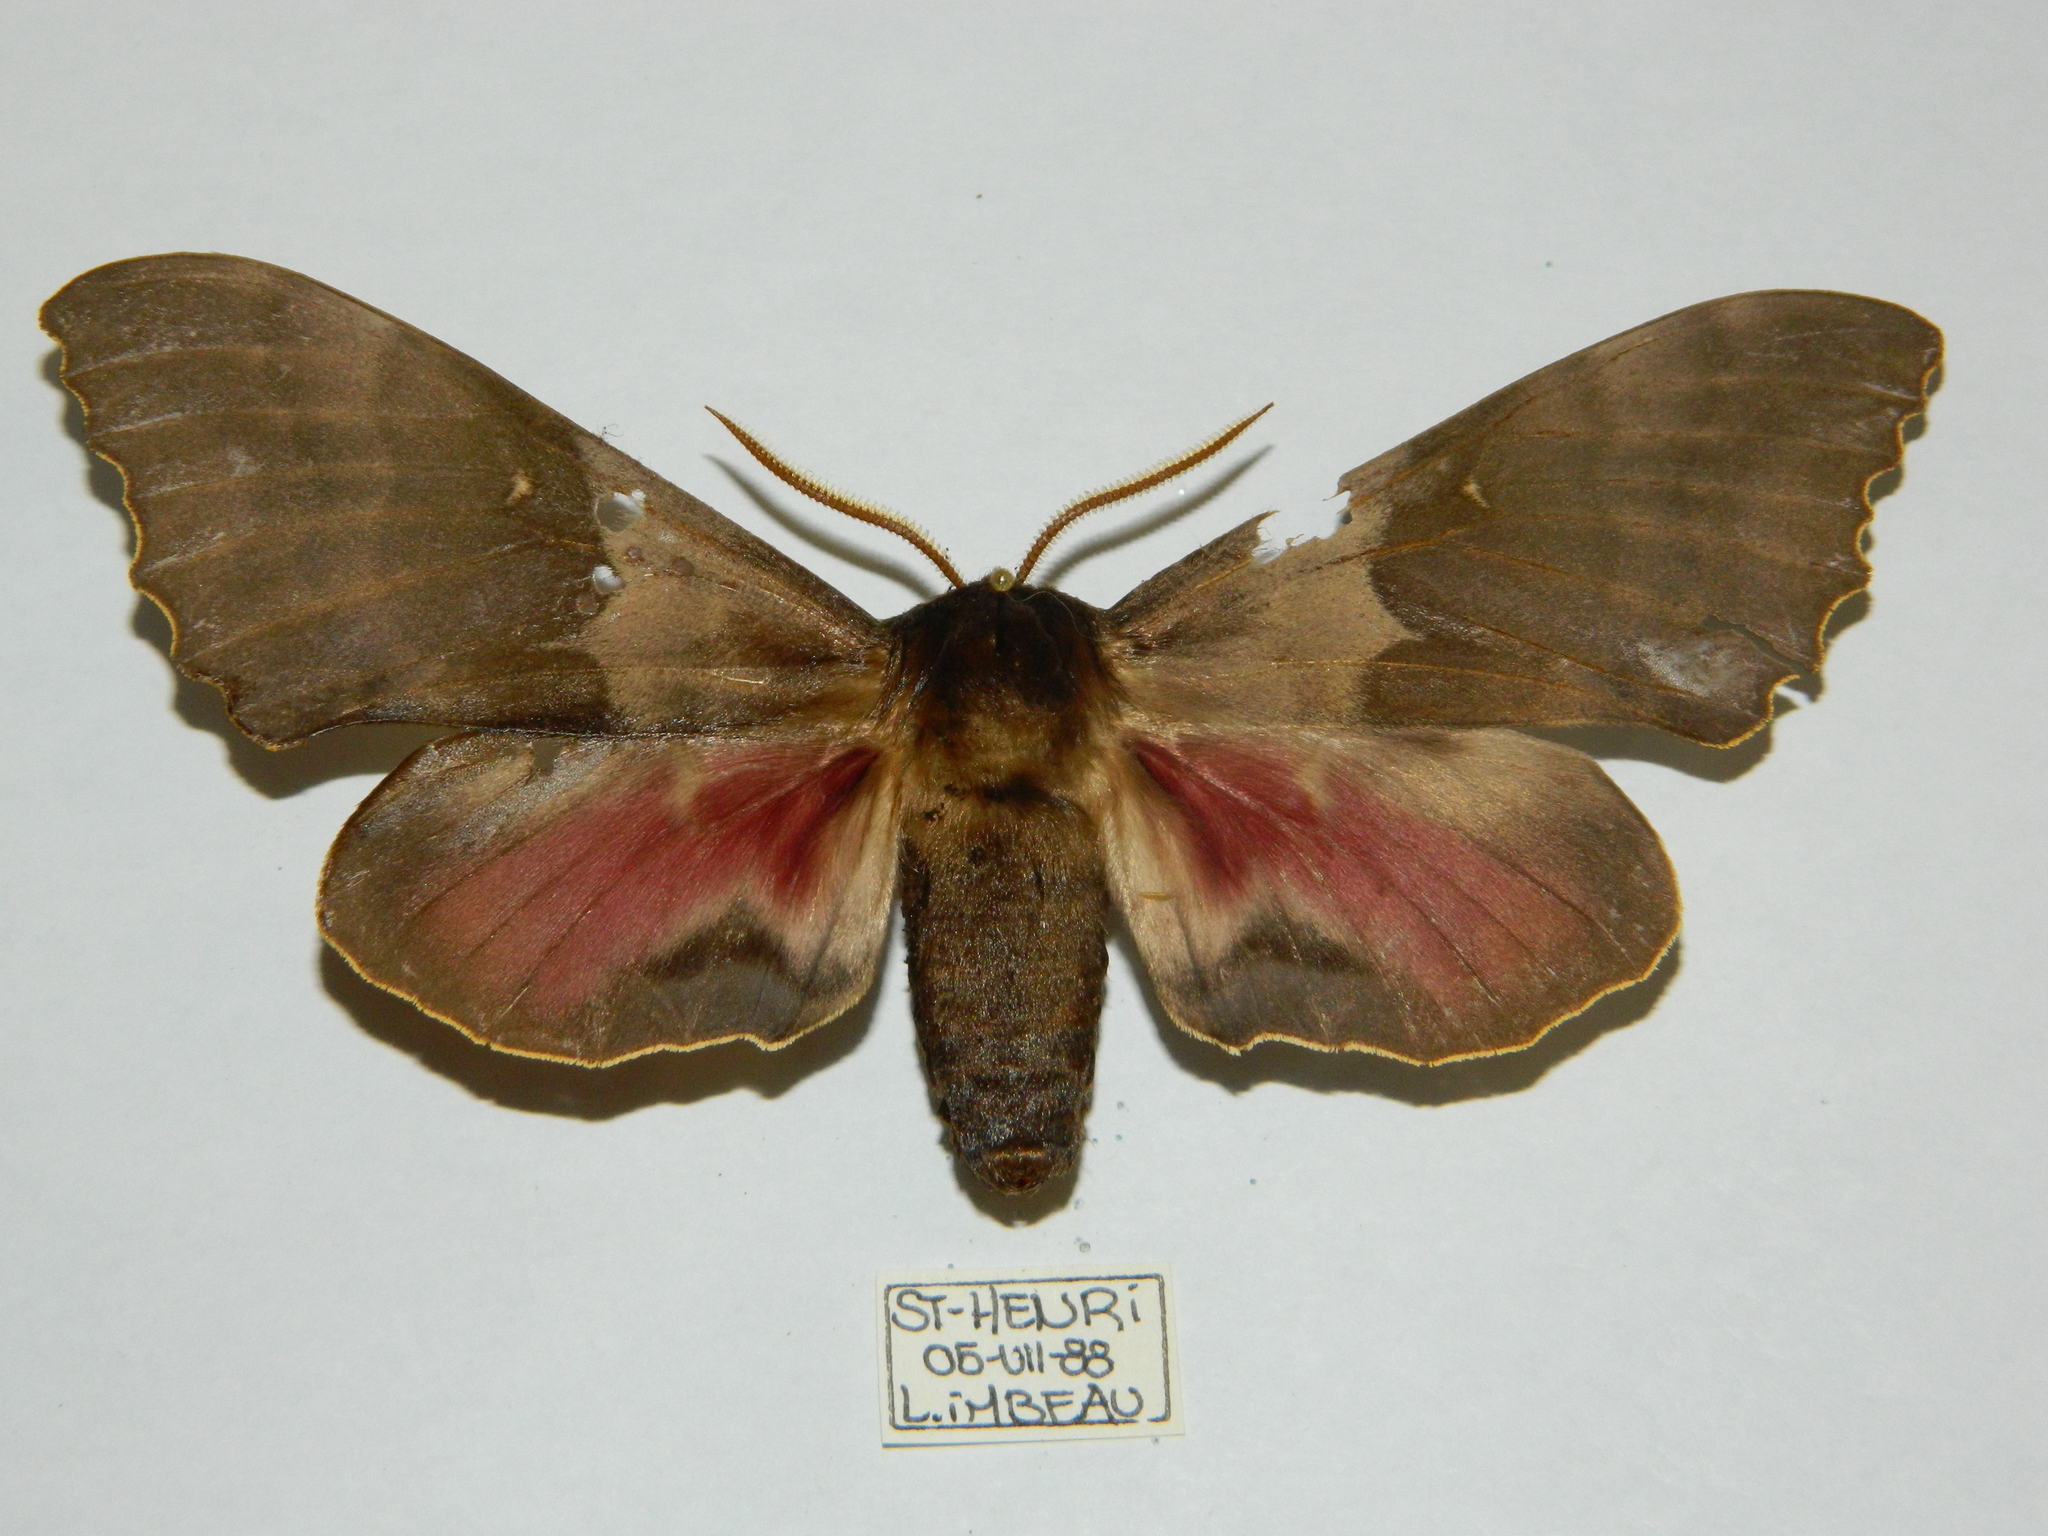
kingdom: Animalia
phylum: Arthropoda
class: Insecta
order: Lepidoptera
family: Sphingidae
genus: Pachysphinx
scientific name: Pachysphinx modesta
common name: Big poplar sphinx
